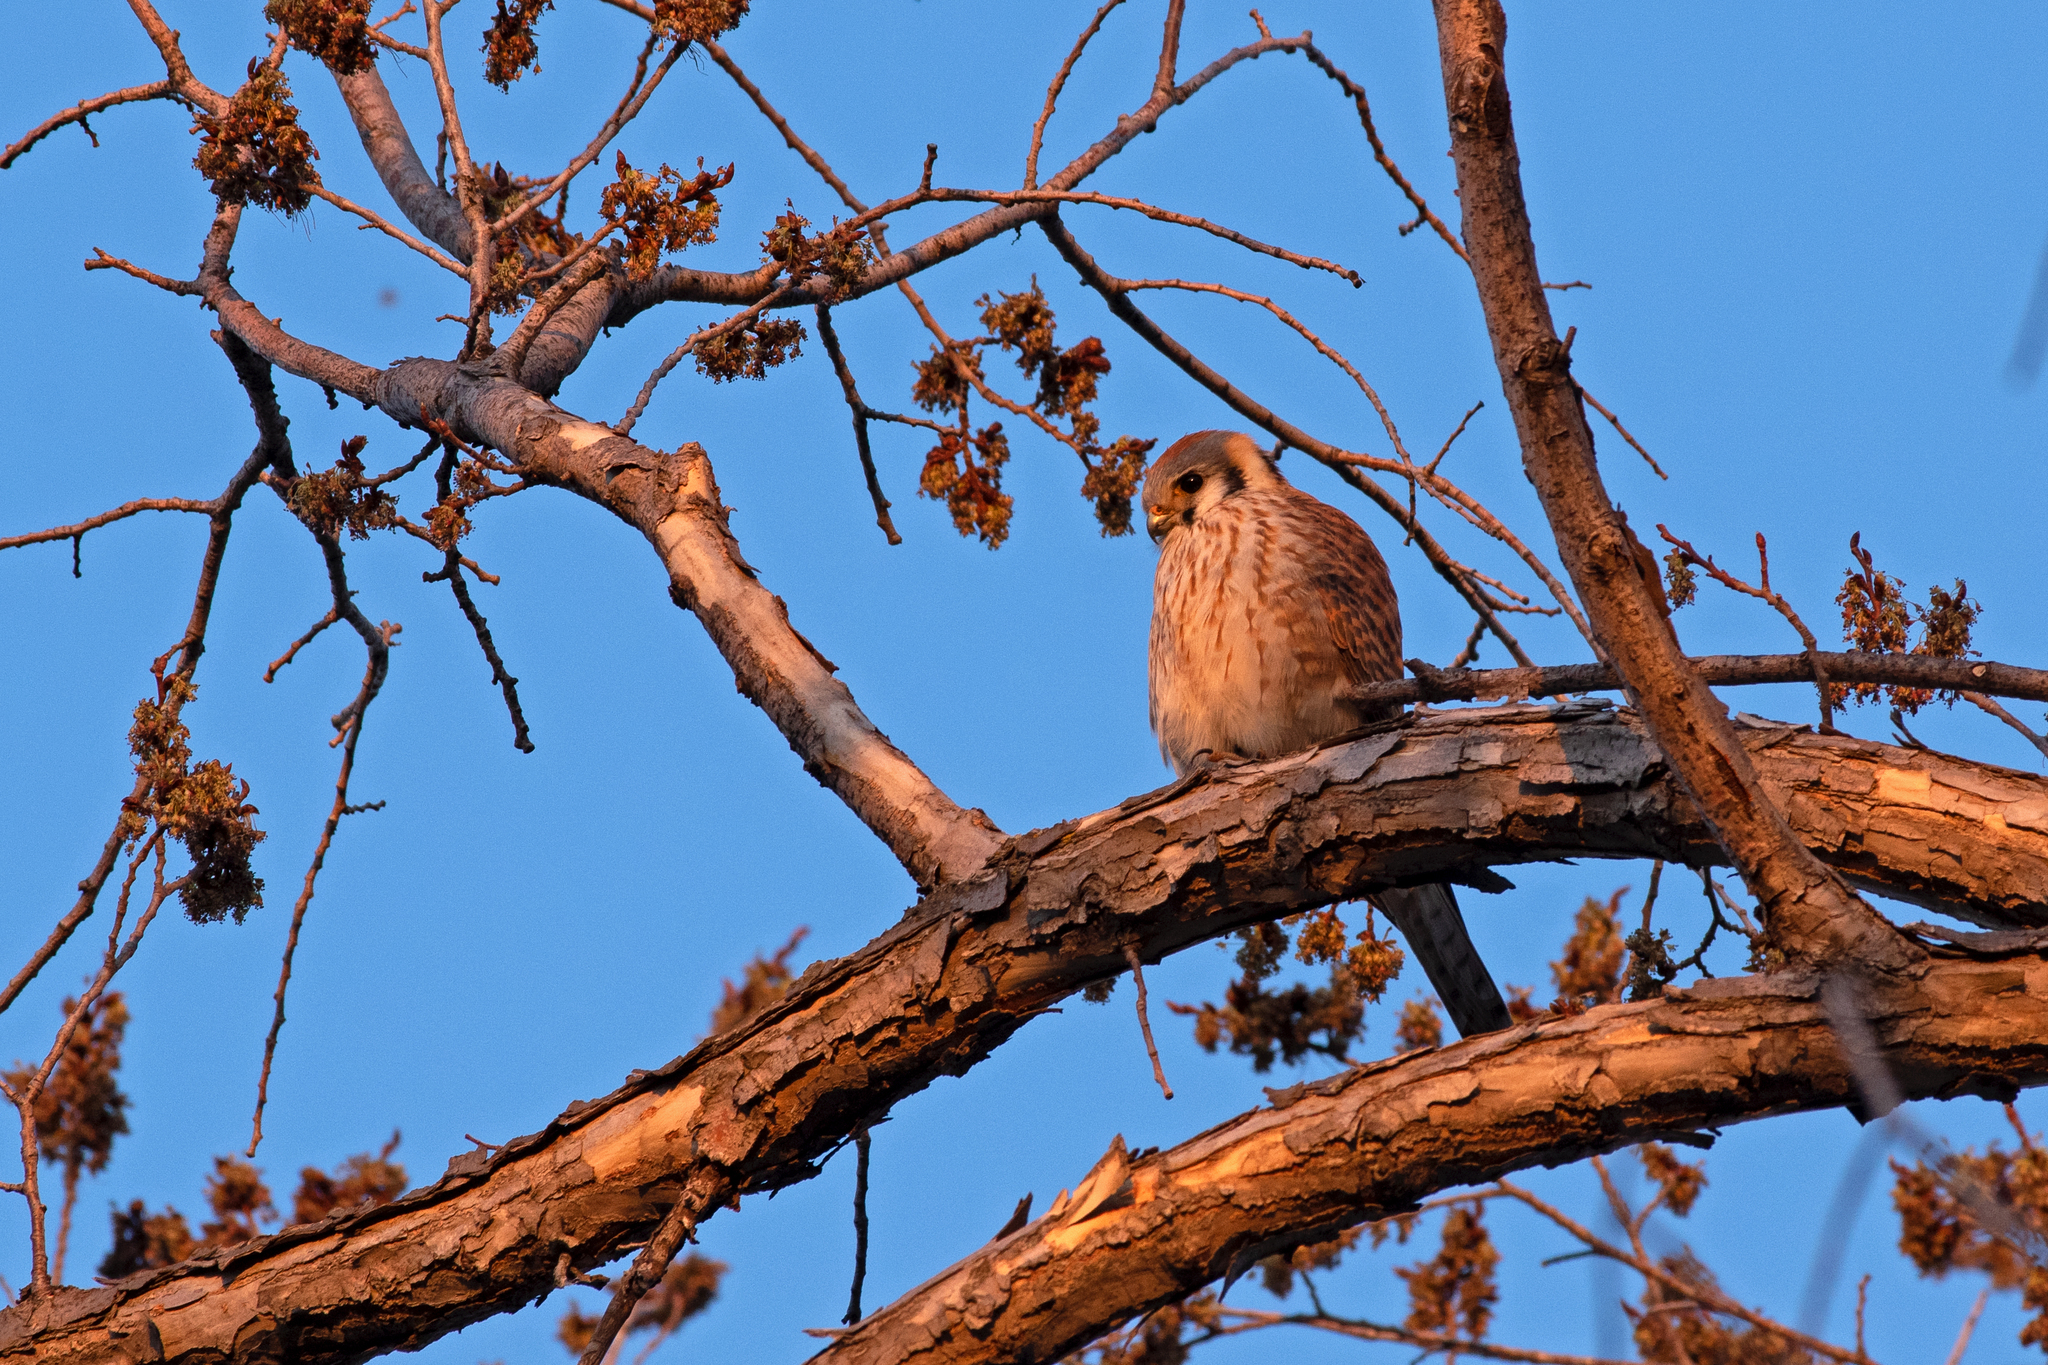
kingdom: Animalia
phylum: Chordata
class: Aves
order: Falconiformes
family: Falconidae
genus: Falco
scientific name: Falco sparverius
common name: American kestrel
